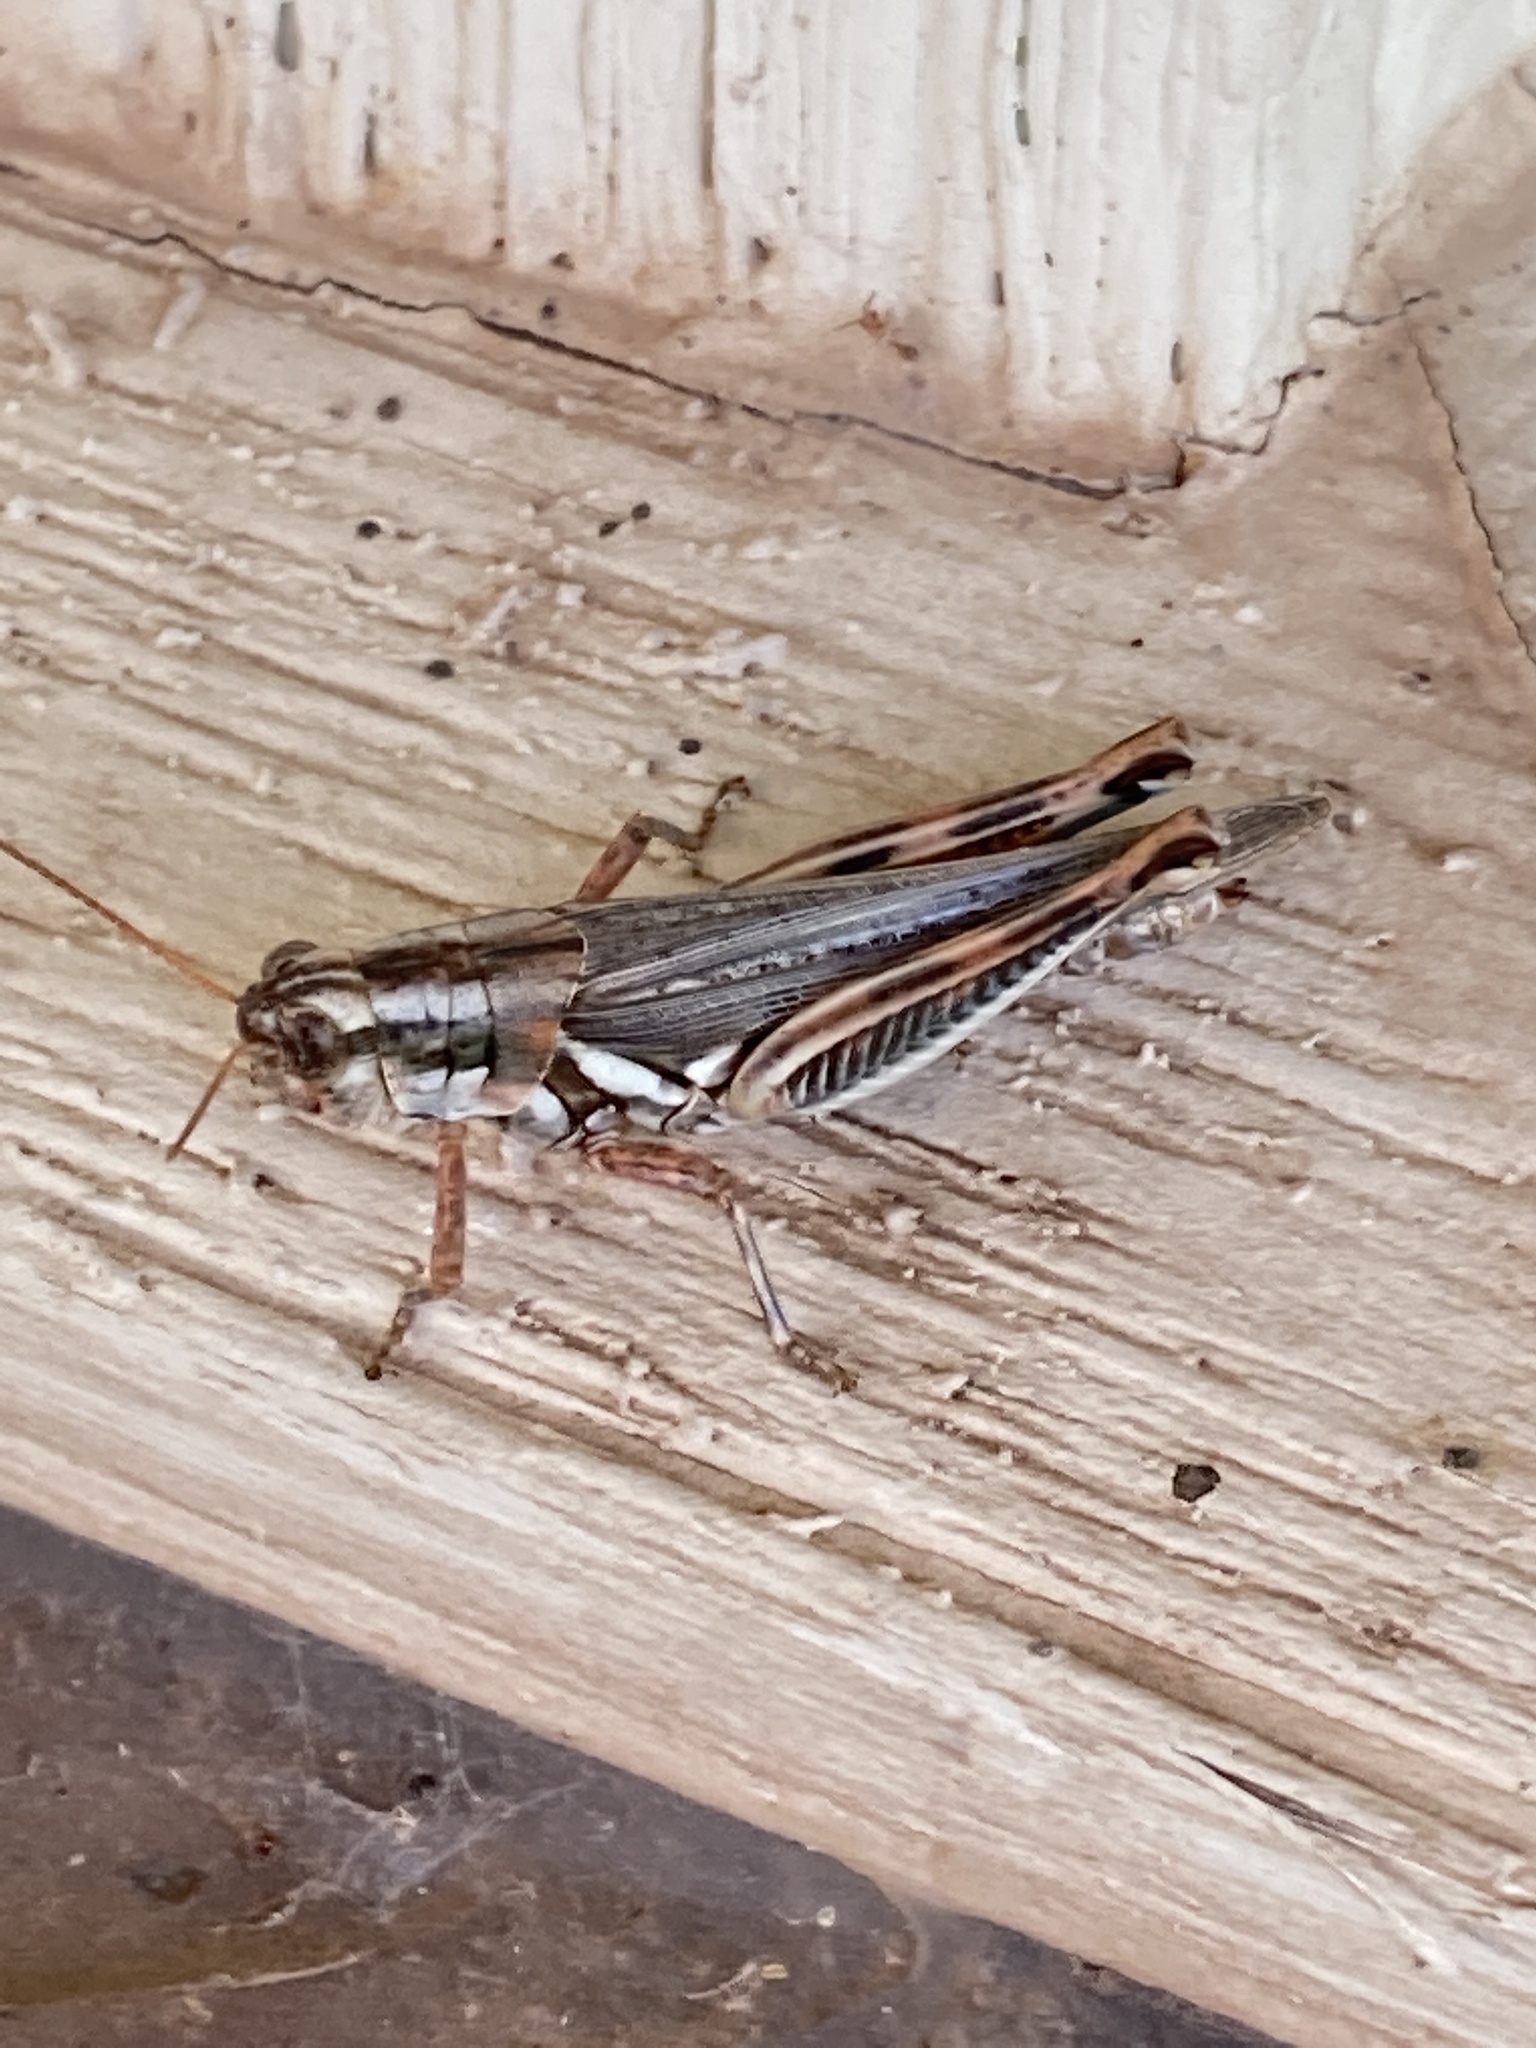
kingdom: Animalia
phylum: Arthropoda
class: Insecta
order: Orthoptera
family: Acrididae
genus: Melanoplus
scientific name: Melanoplus bowditchi
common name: Sagebrush grasshopper
